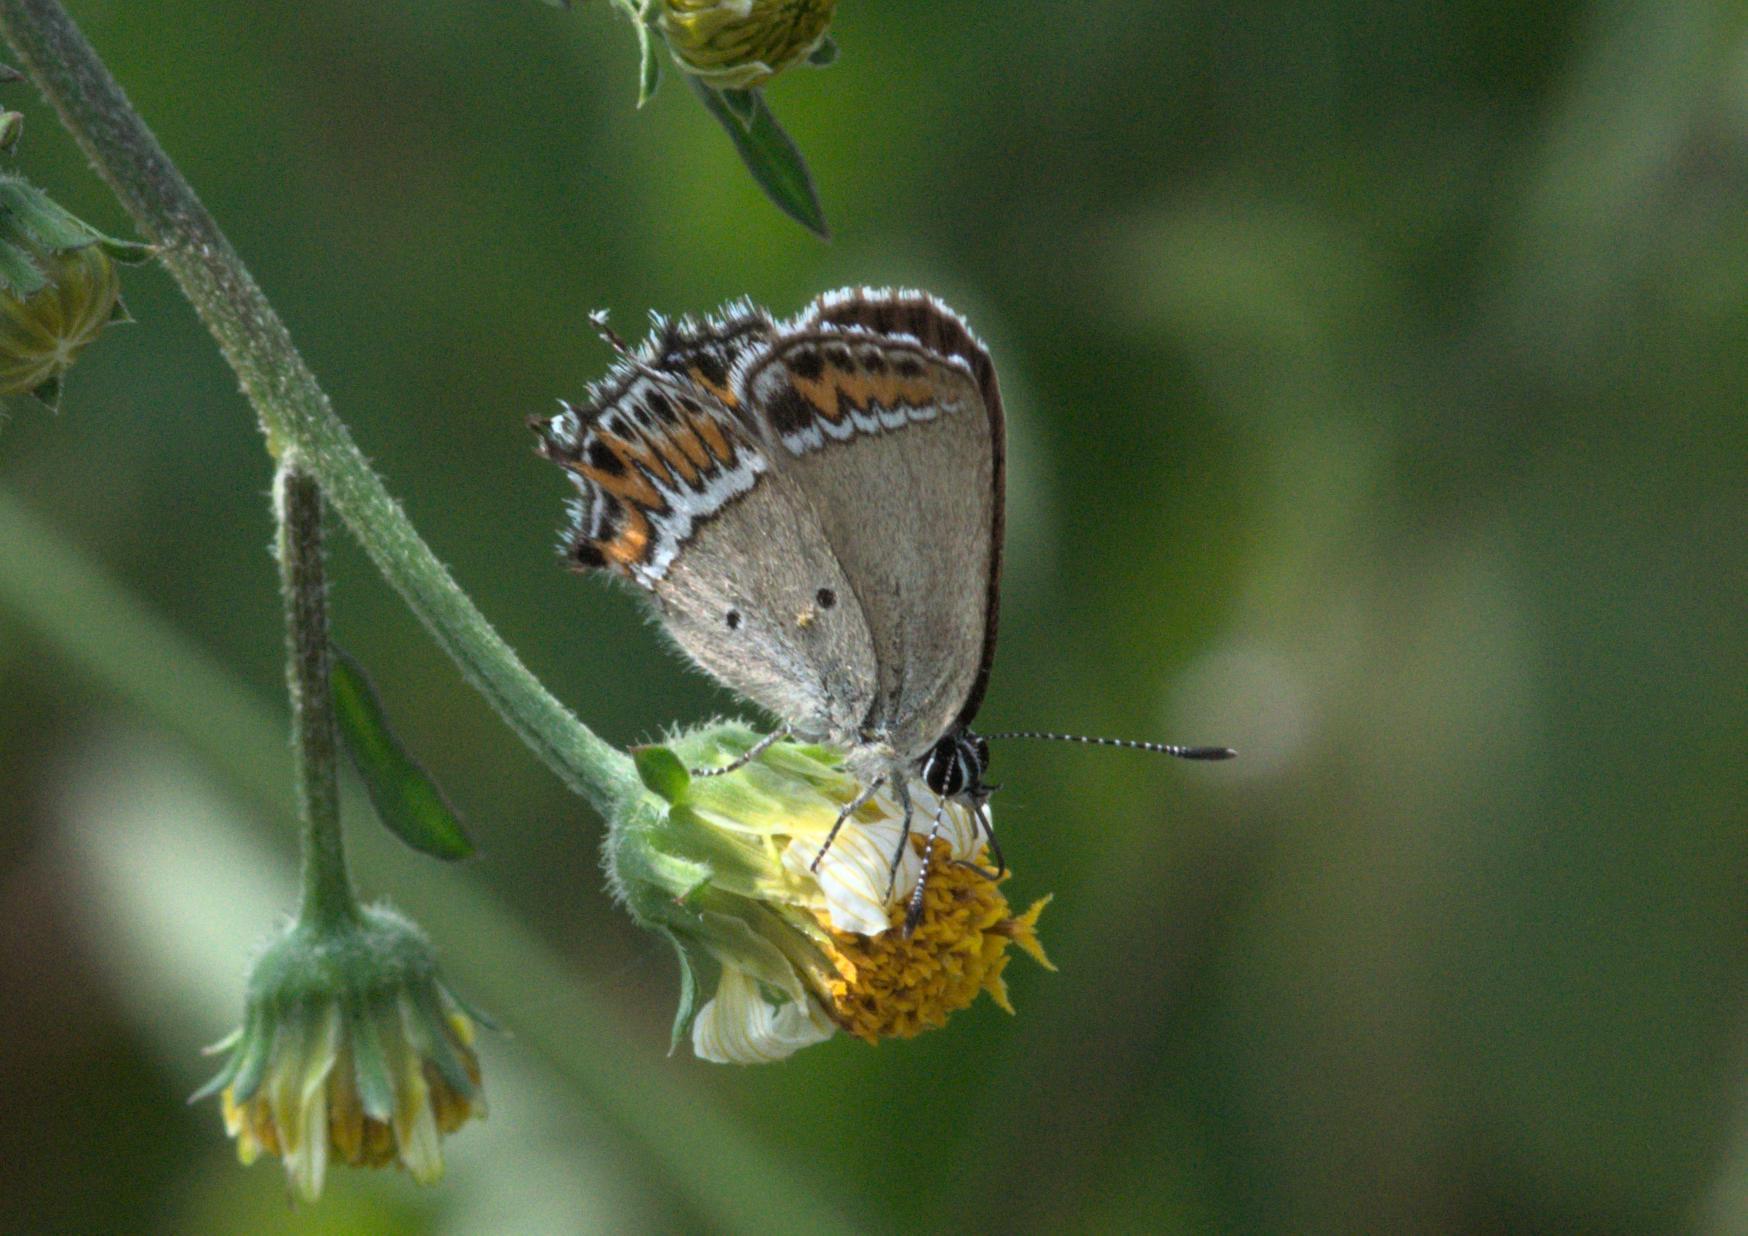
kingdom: Animalia
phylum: Arthropoda
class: Insecta
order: Lepidoptera
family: Lycaenidae
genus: Heliophorus
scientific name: Heliophorus sena
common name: Sorrel sapphire
